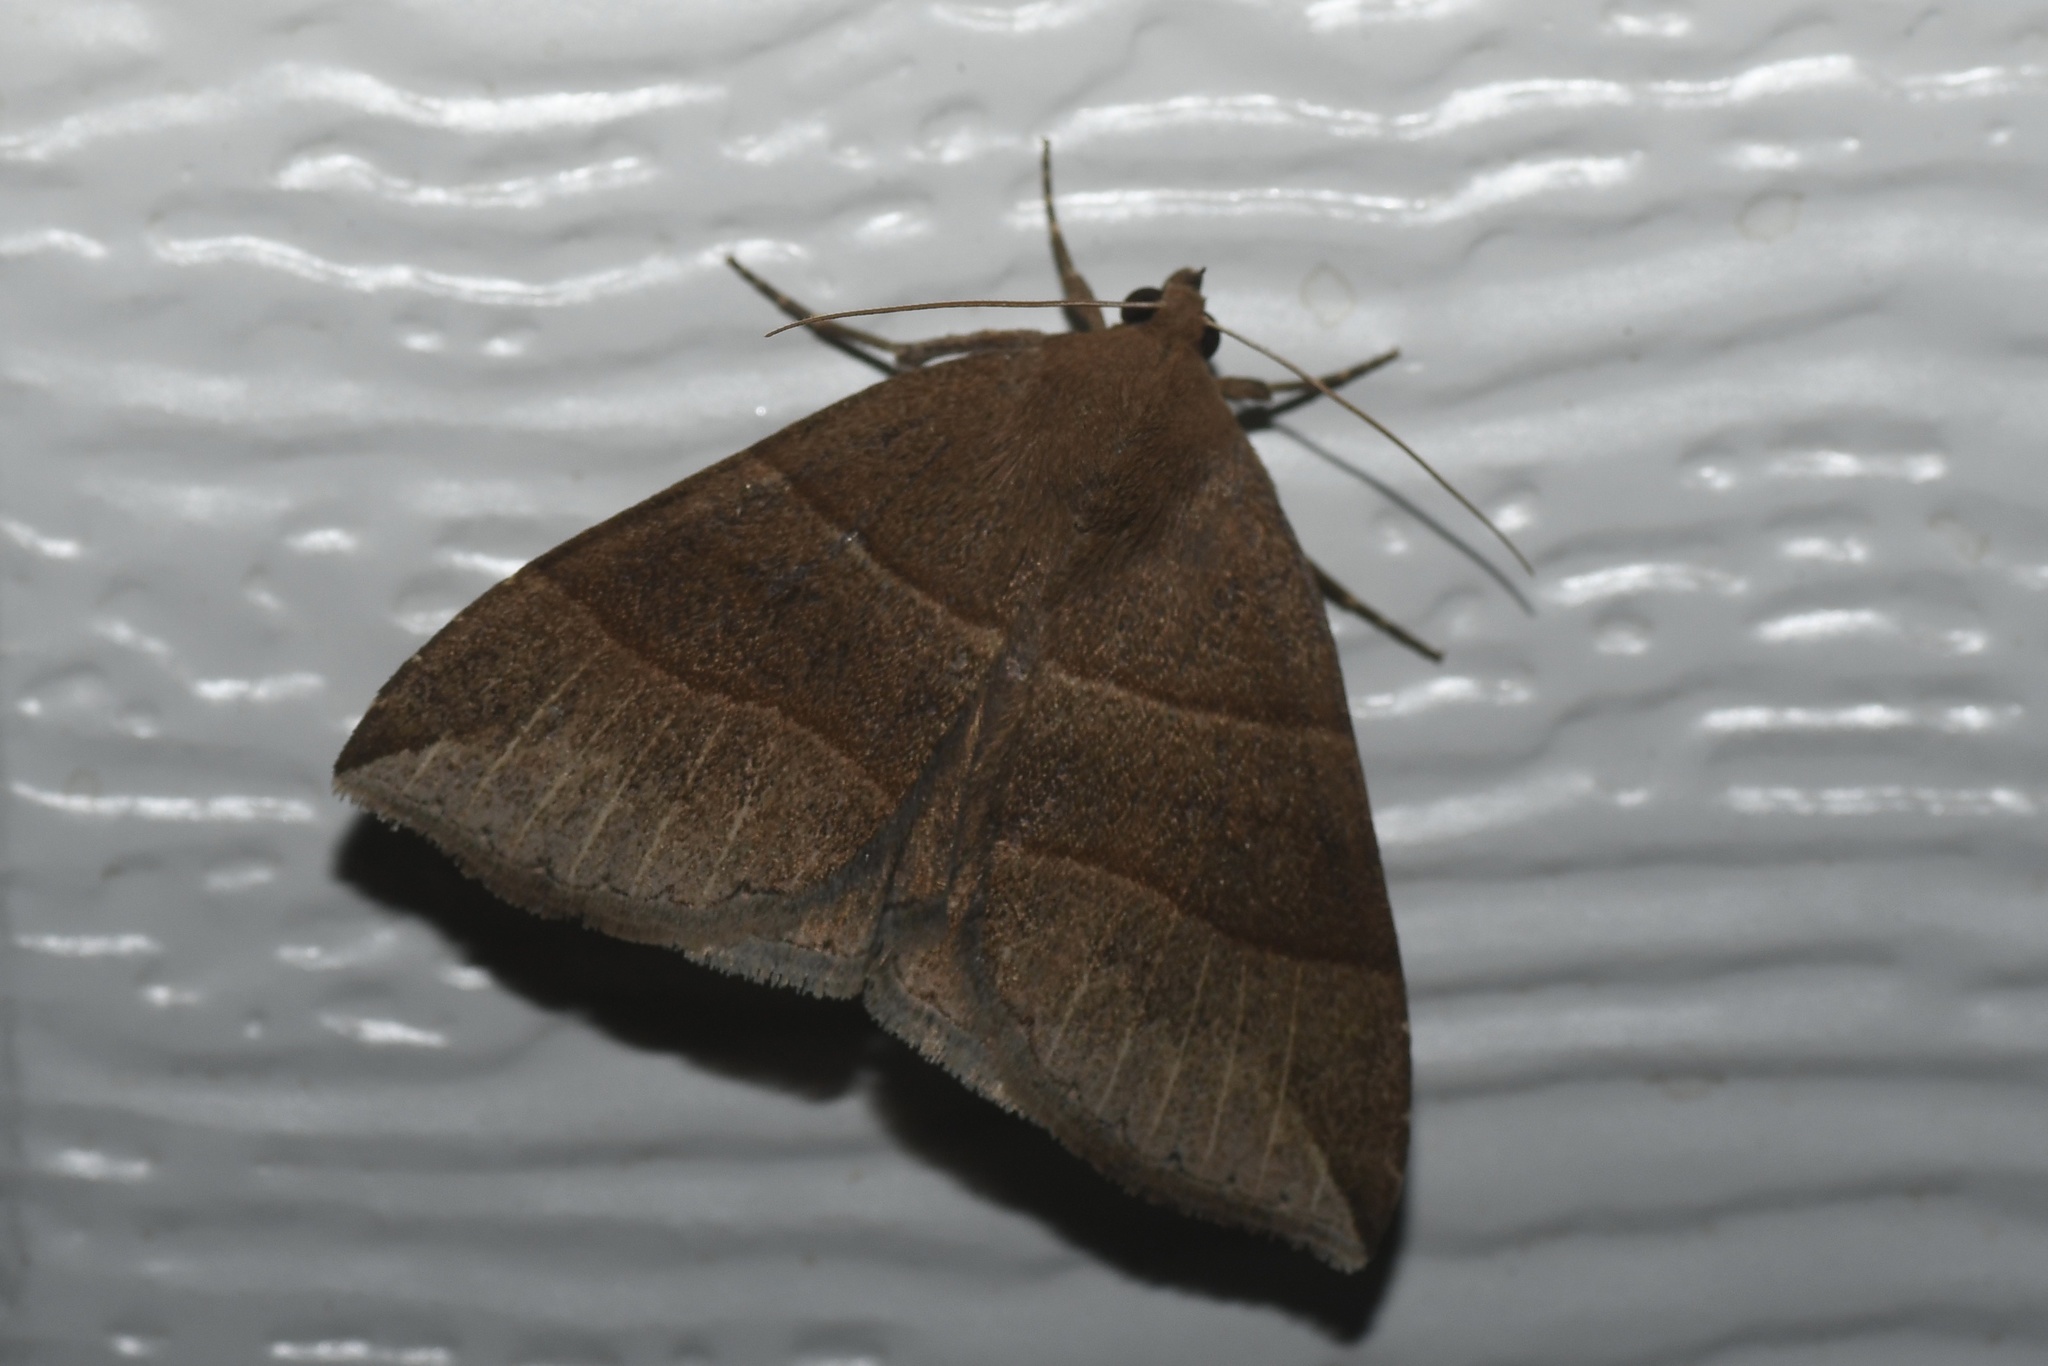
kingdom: Animalia
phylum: Arthropoda
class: Insecta
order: Lepidoptera
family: Erebidae
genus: Parallelia
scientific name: Parallelia bistriaris
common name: Maple looper moth
